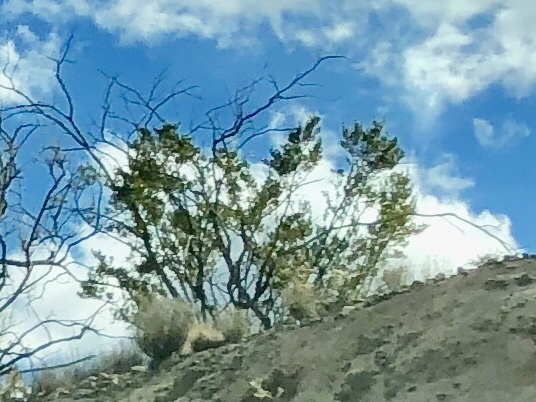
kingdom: Plantae
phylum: Tracheophyta
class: Magnoliopsida
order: Zygophyllales
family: Zygophyllaceae
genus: Larrea
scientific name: Larrea tridentata
